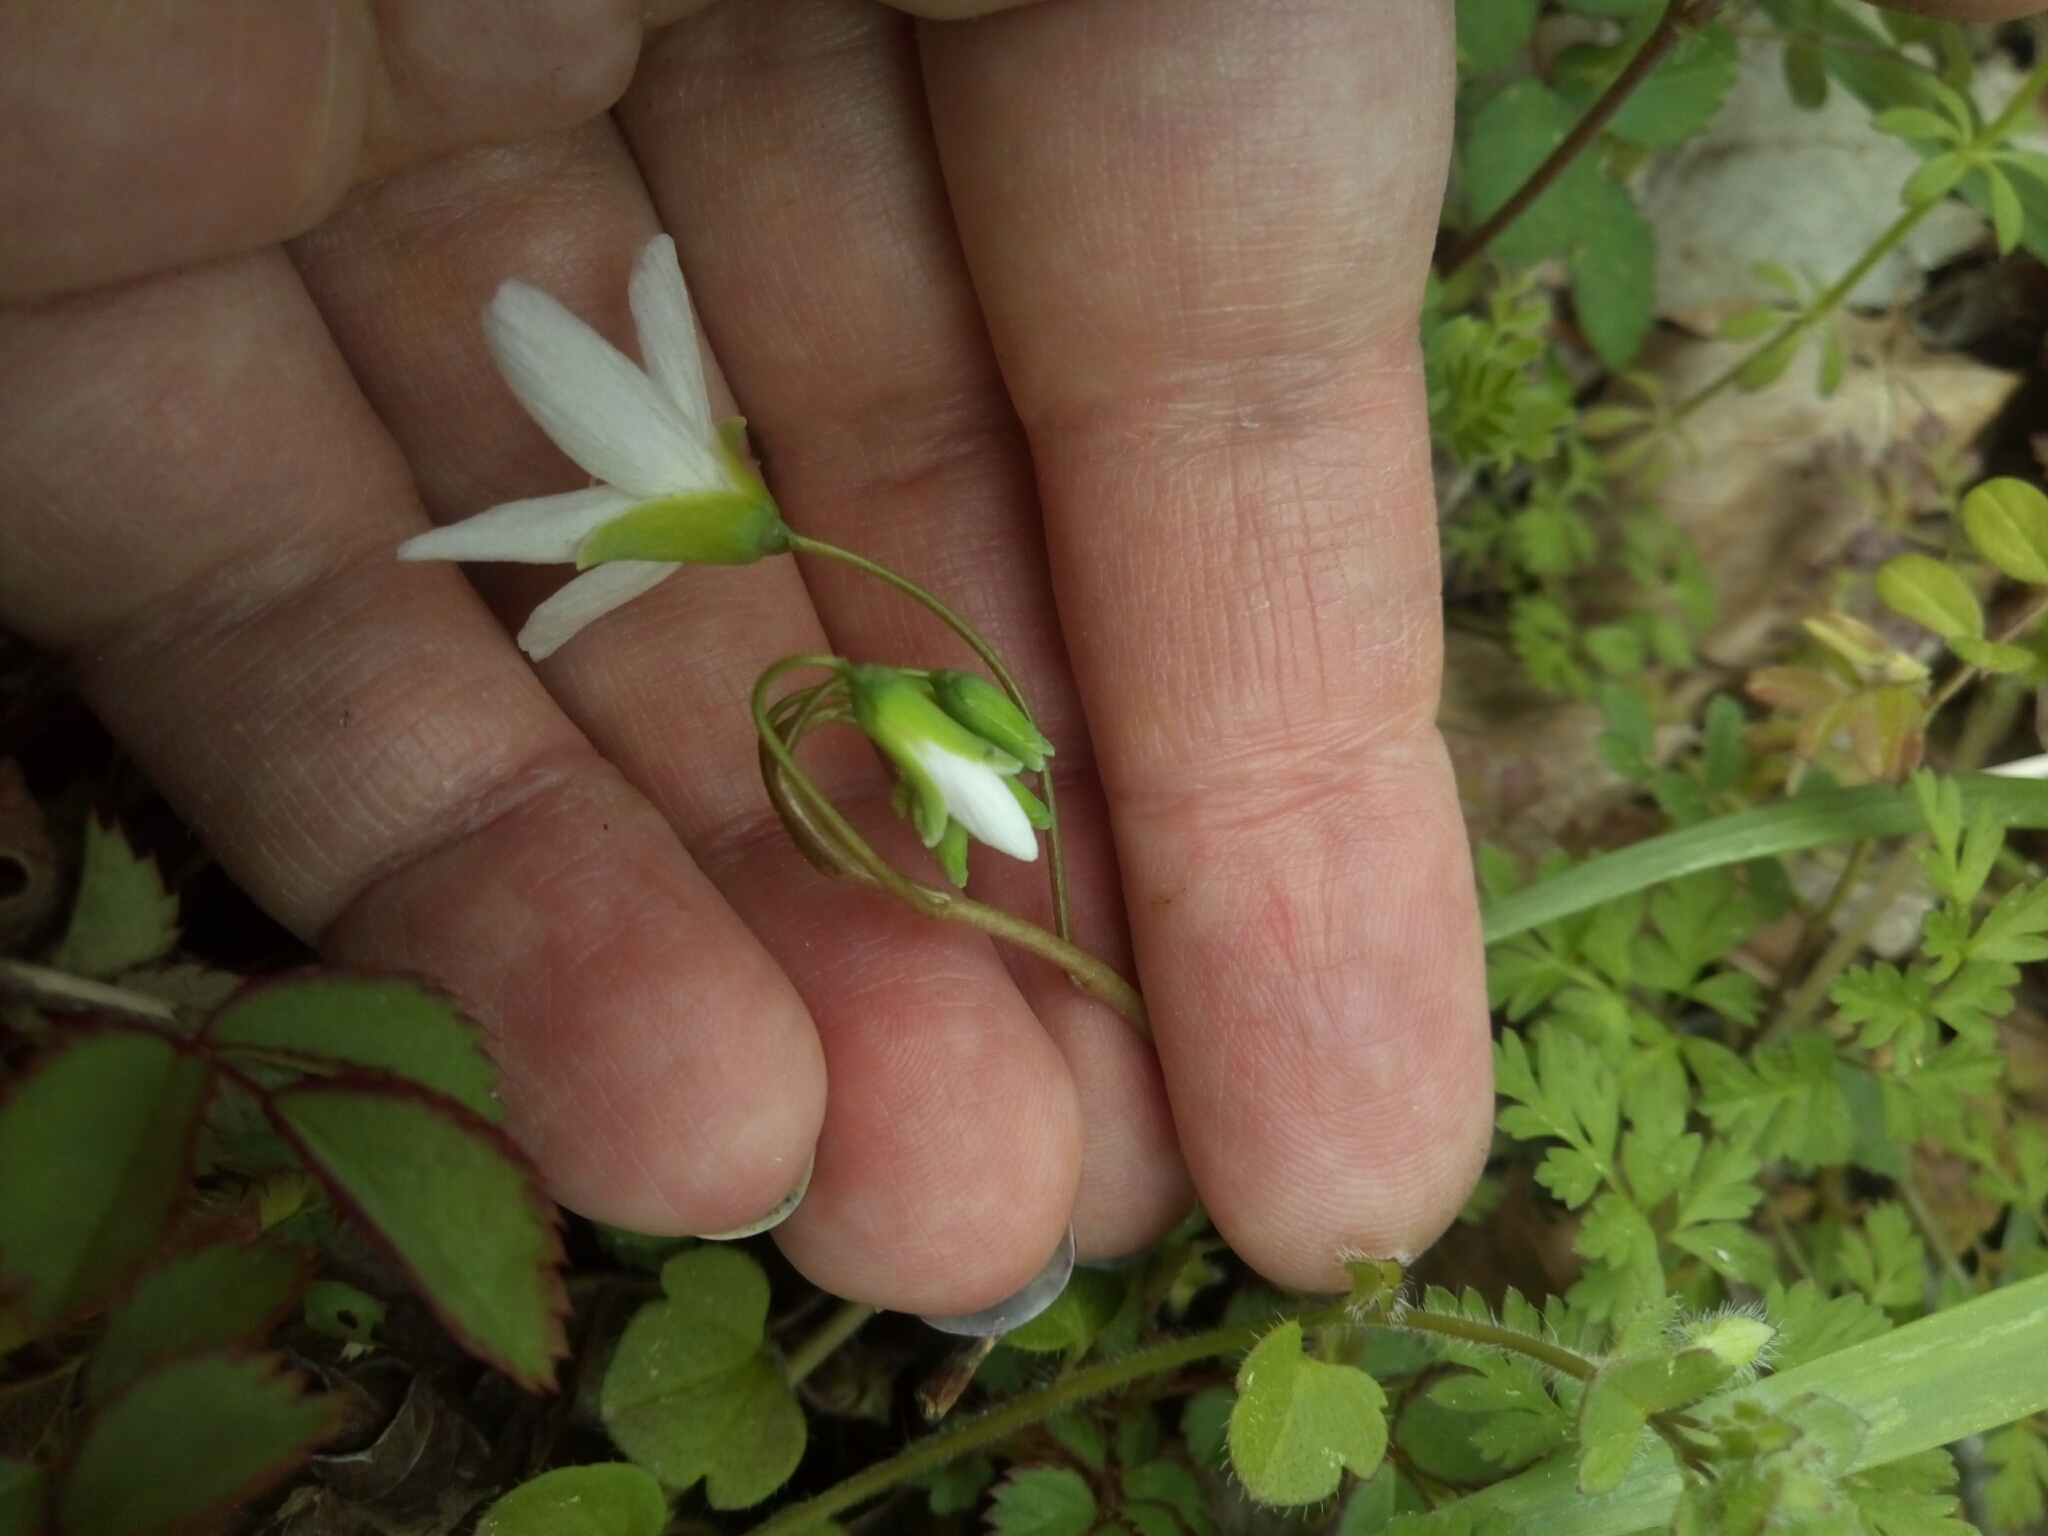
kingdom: Plantae
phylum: Tracheophyta
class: Magnoliopsida
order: Caryophyllales
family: Montiaceae
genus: Claytonia
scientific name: Claytonia virginica
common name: Virginia springbeauty
